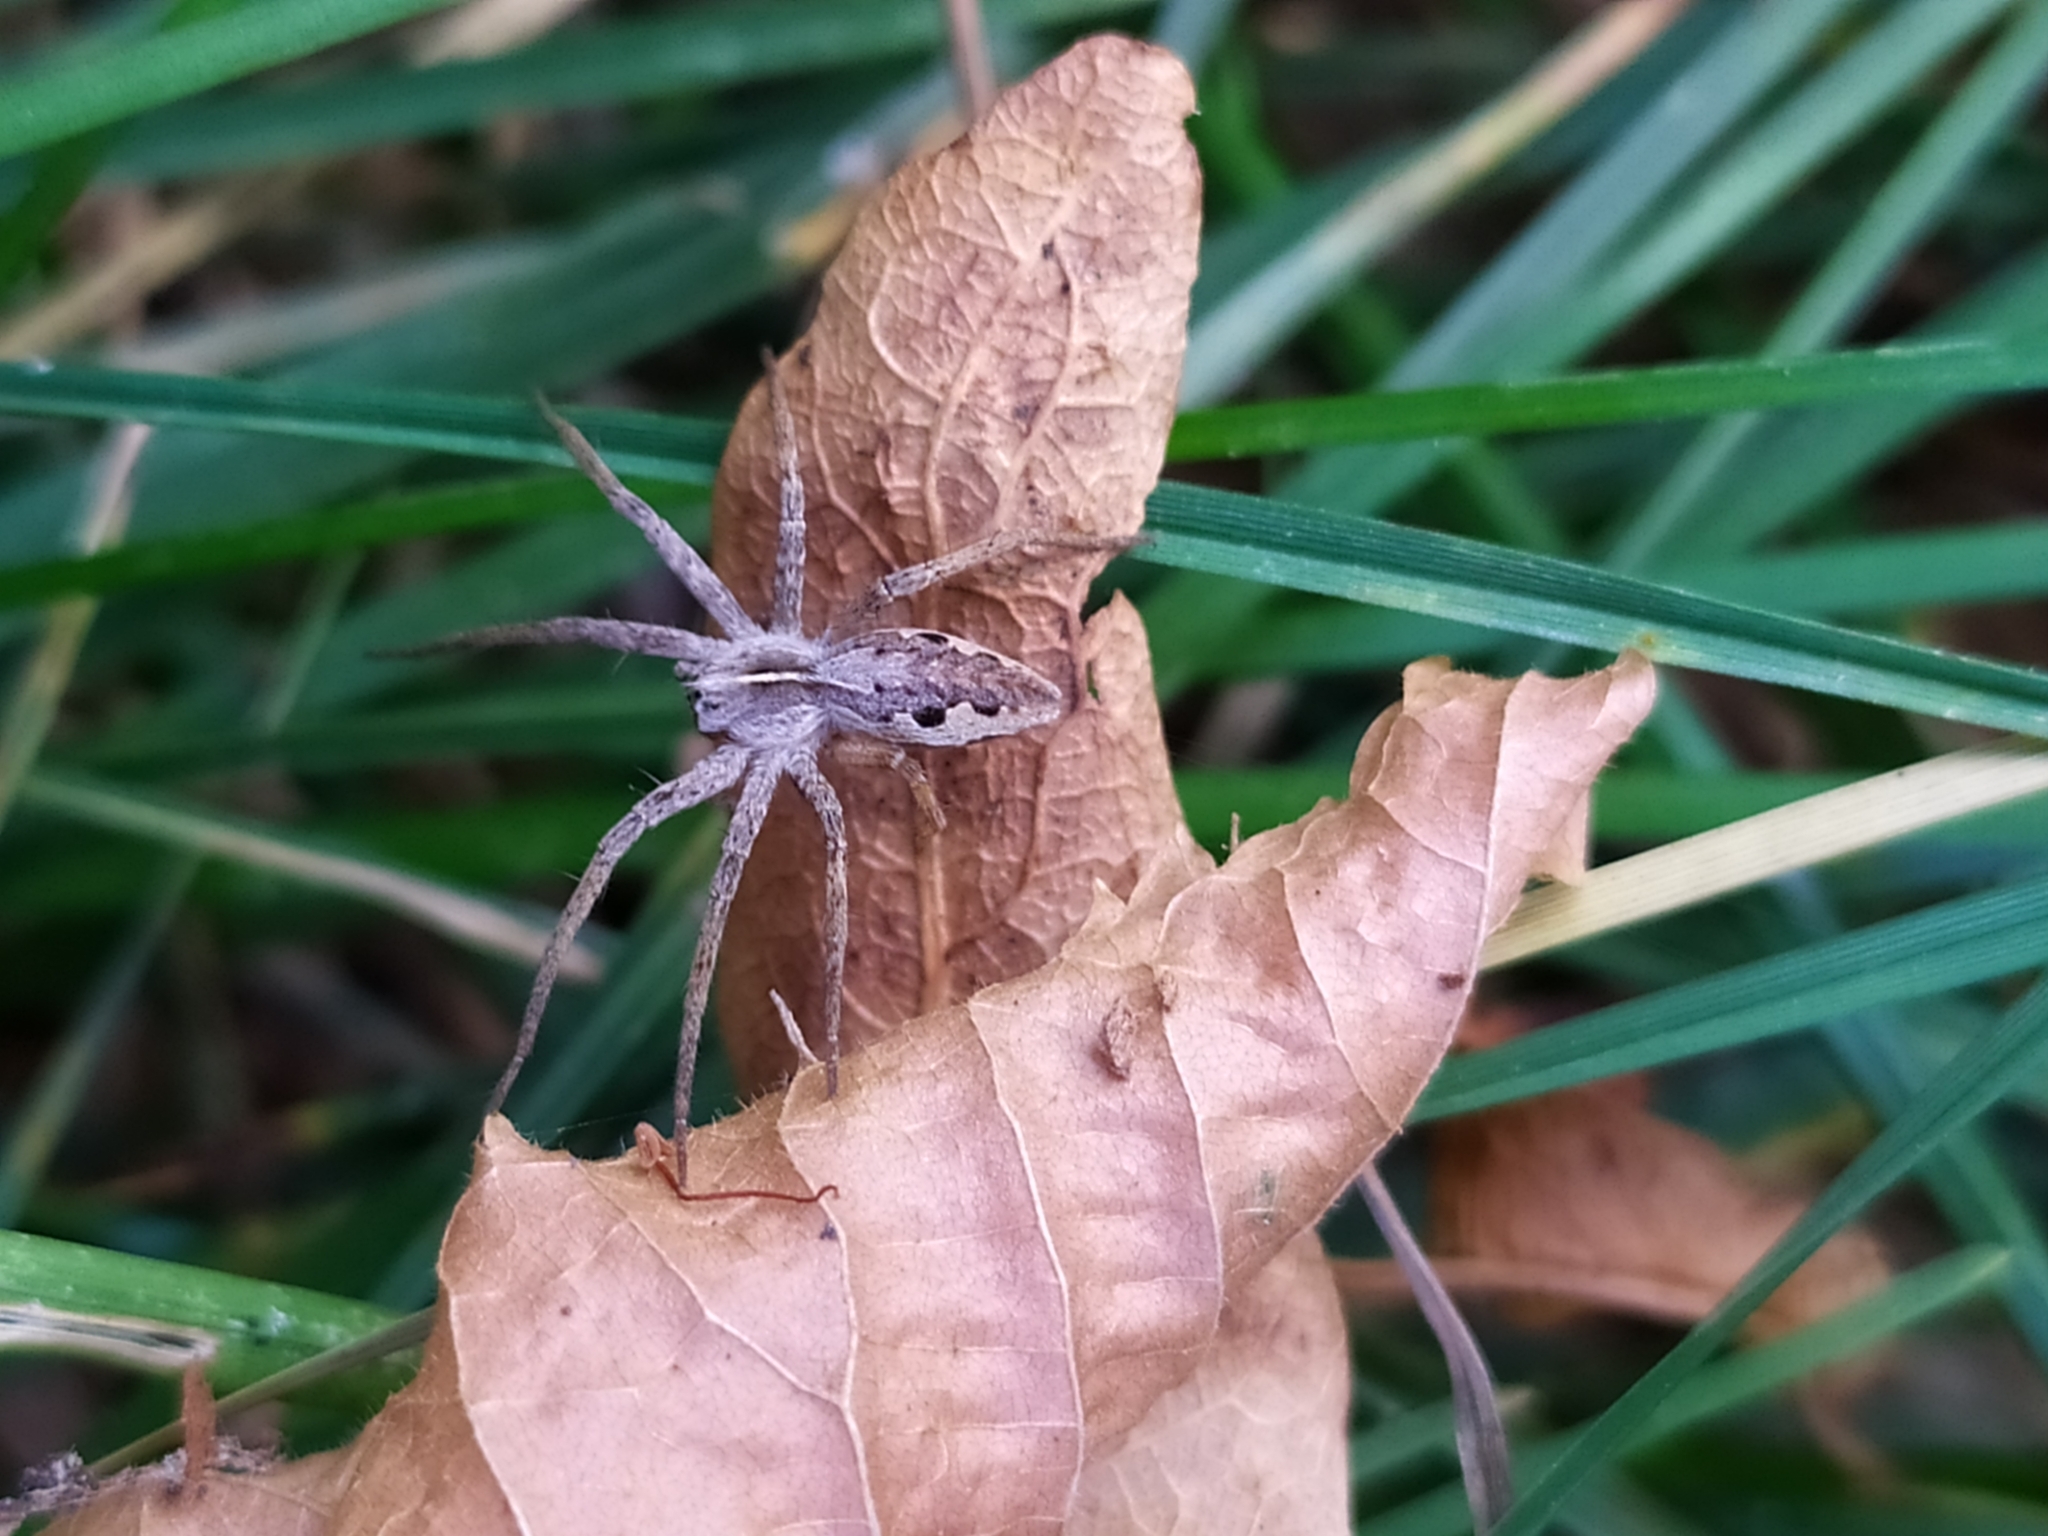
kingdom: Animalia
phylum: Arthropoda
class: Arachnida
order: Araneae
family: Pisauridae
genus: Pisaura
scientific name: Pisaura mirabilis
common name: Tent spider
